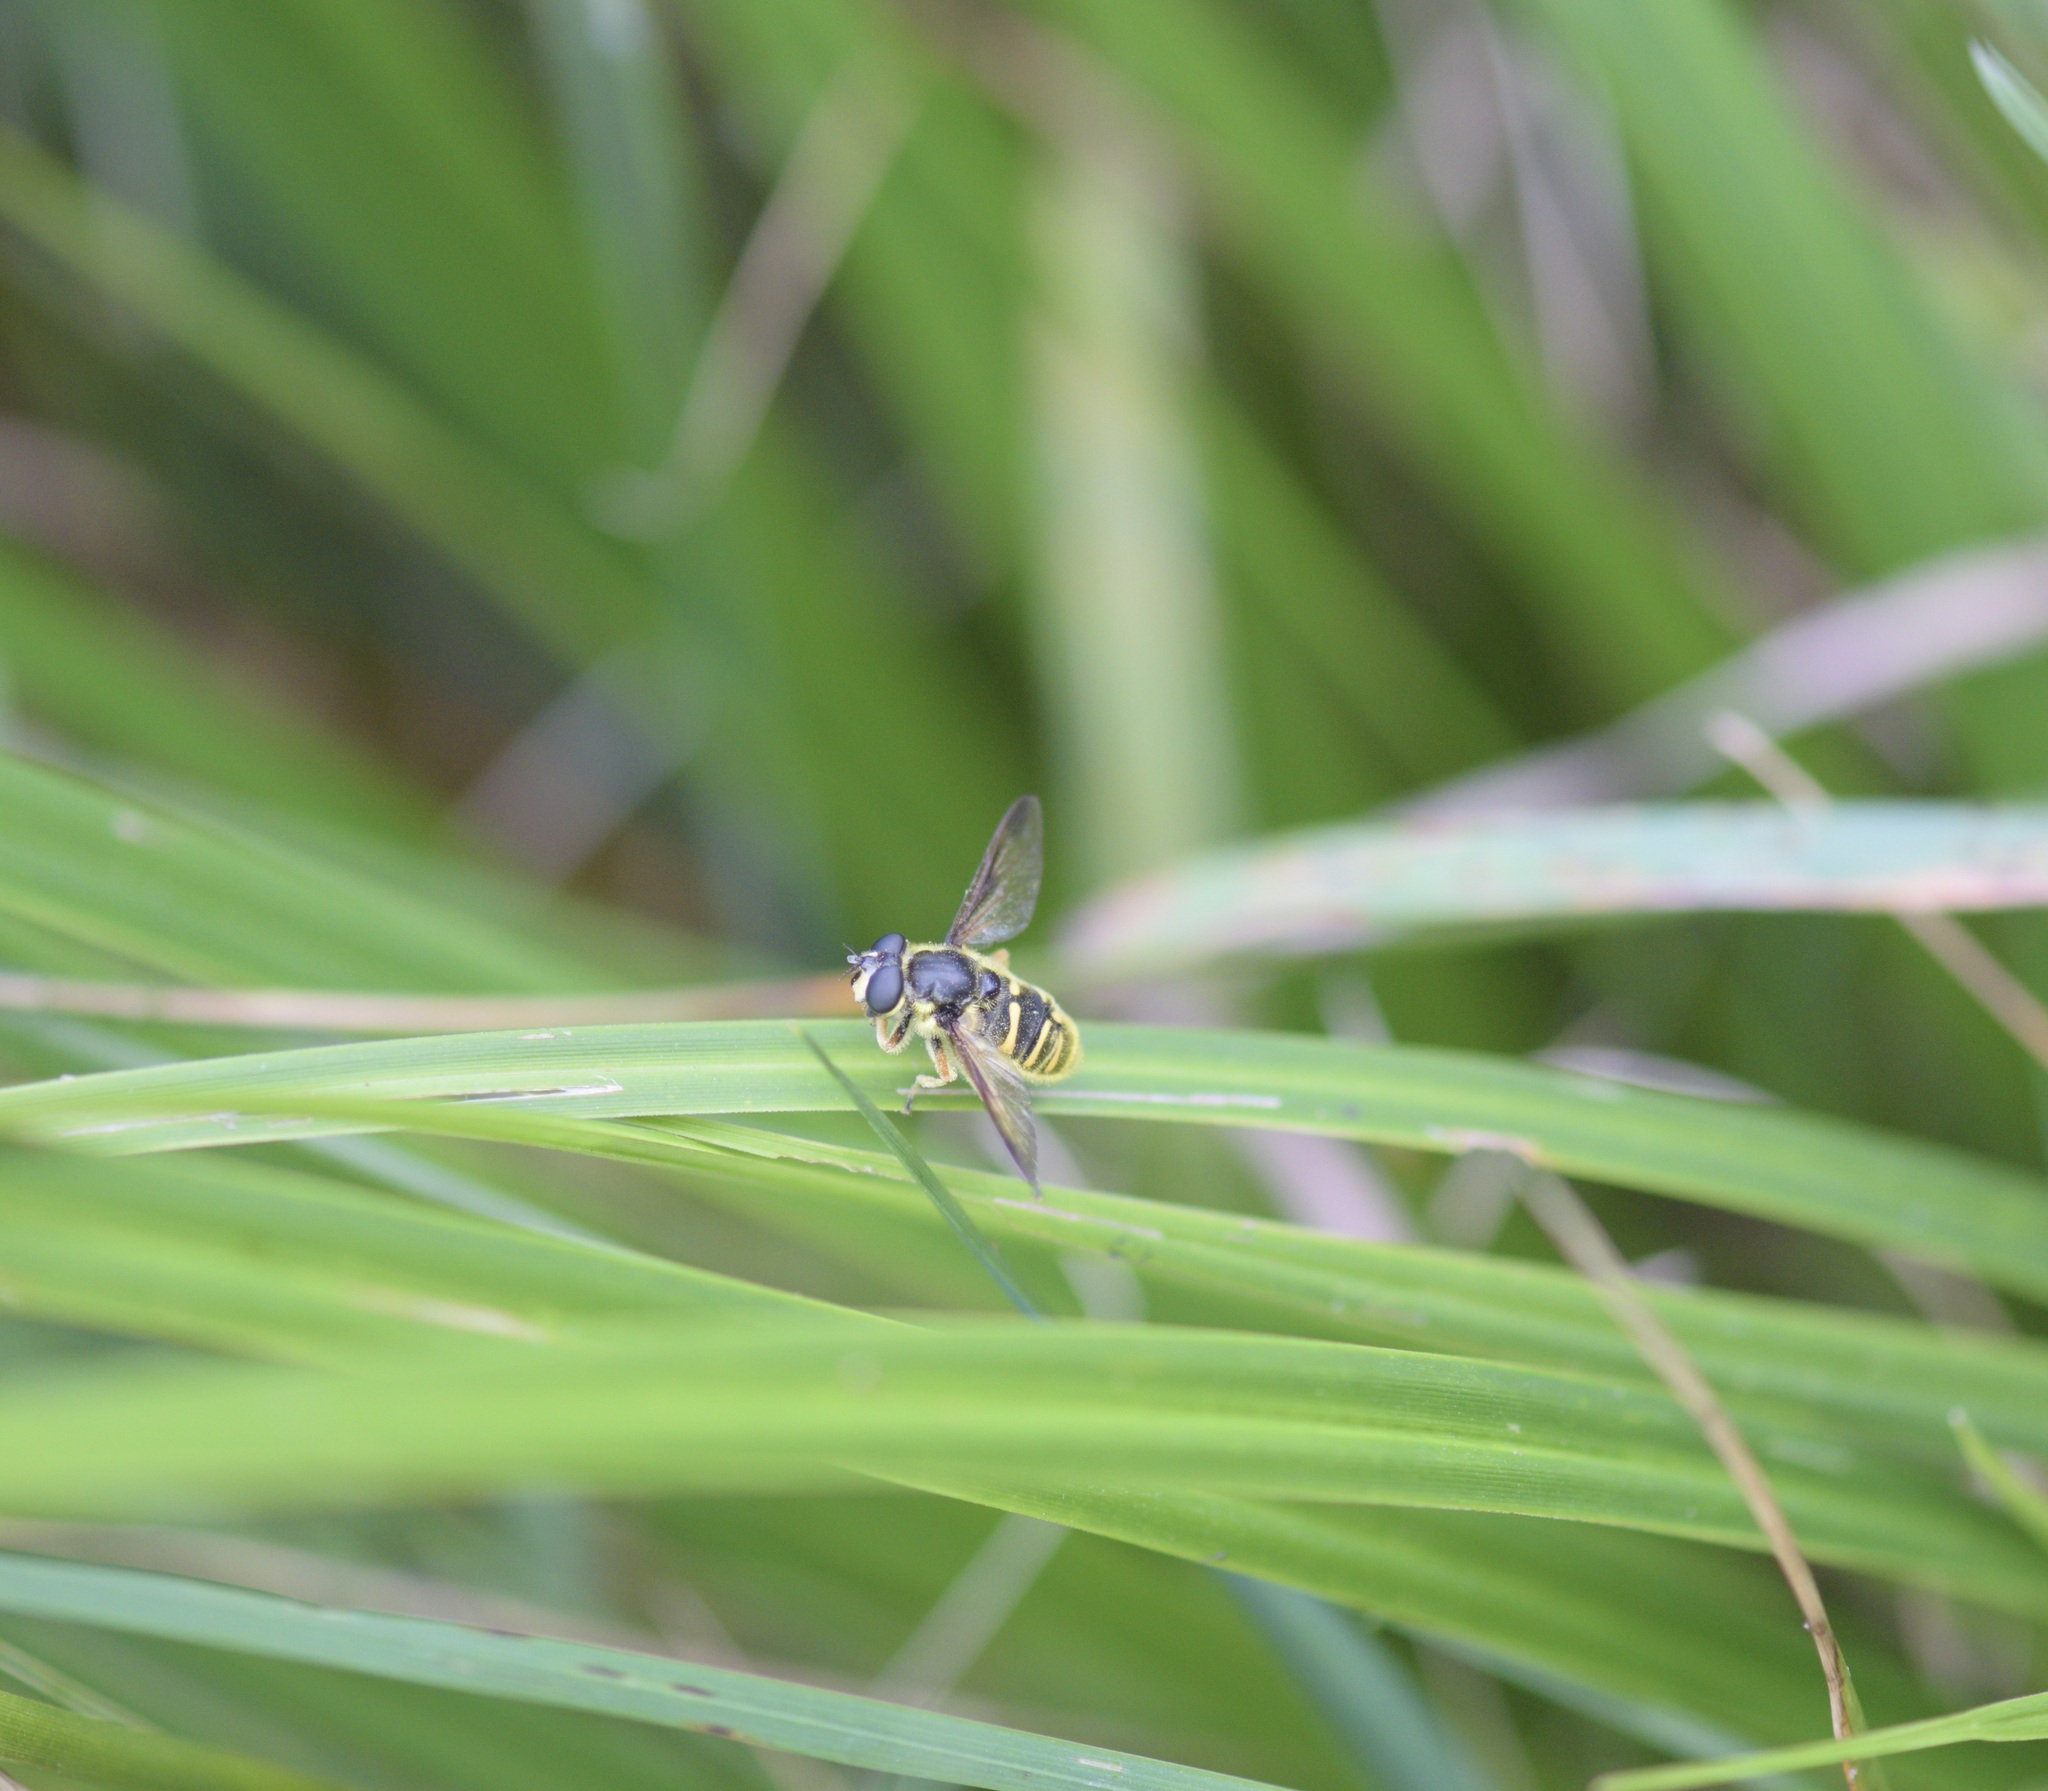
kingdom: Animalia
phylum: Arthropoda
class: Insecta
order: Diptera
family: Syrphidae
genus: Sericomyia
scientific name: Sericomyia chrysotoxoides
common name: Oblique-banded pond fly
